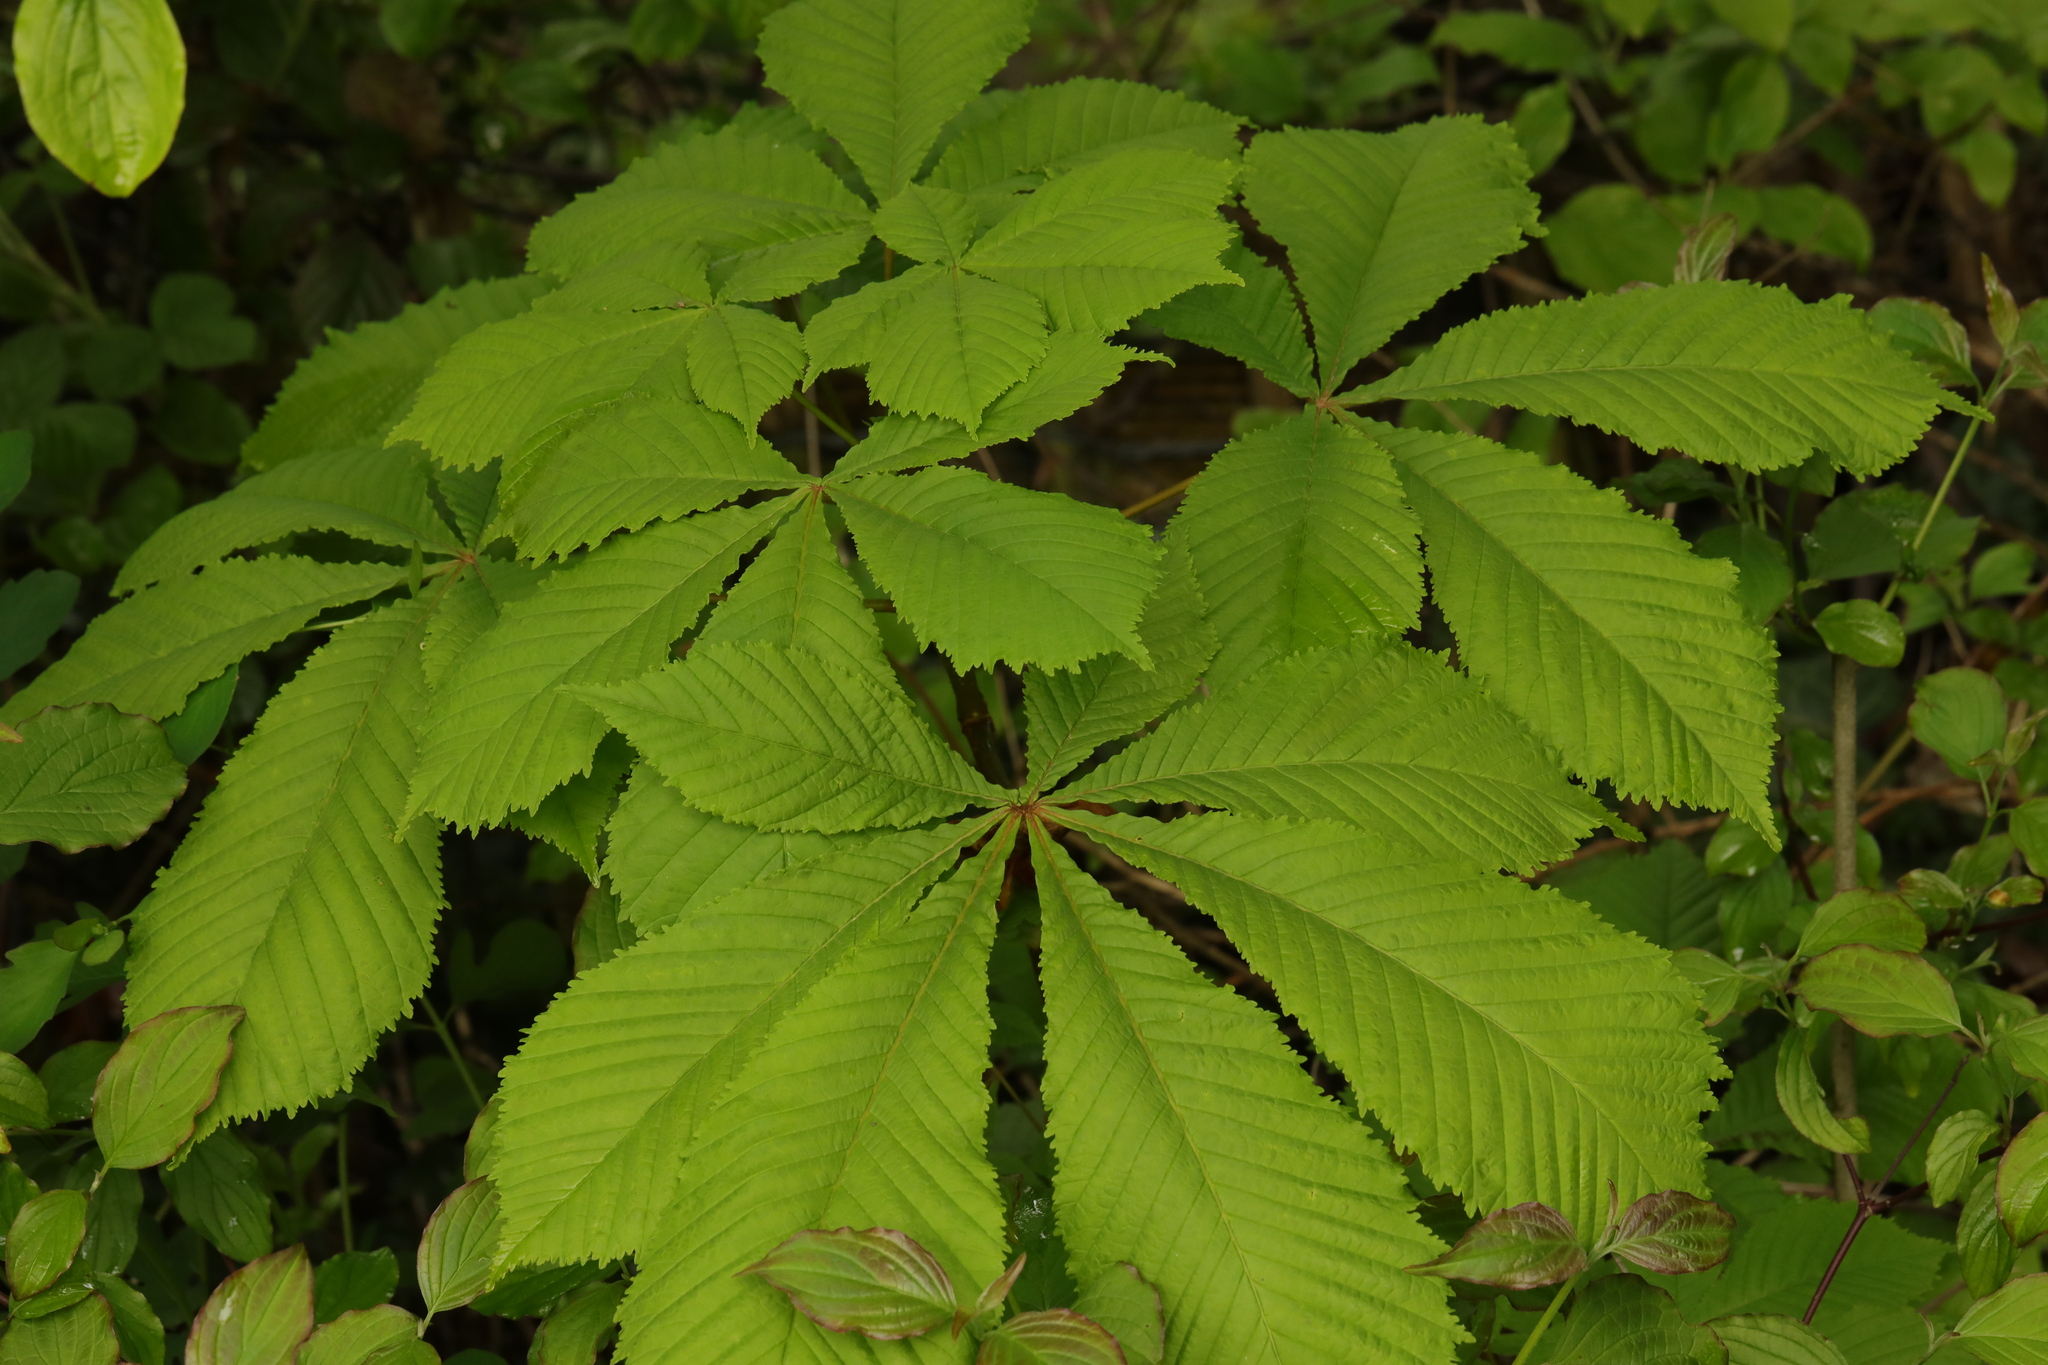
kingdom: Plantae
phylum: Tracheophyta
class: Magnoliopsida
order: Sapindales
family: Sapindaceae
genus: Aesculus
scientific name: Aesculus hippocastanum
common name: Horse-chestnut
